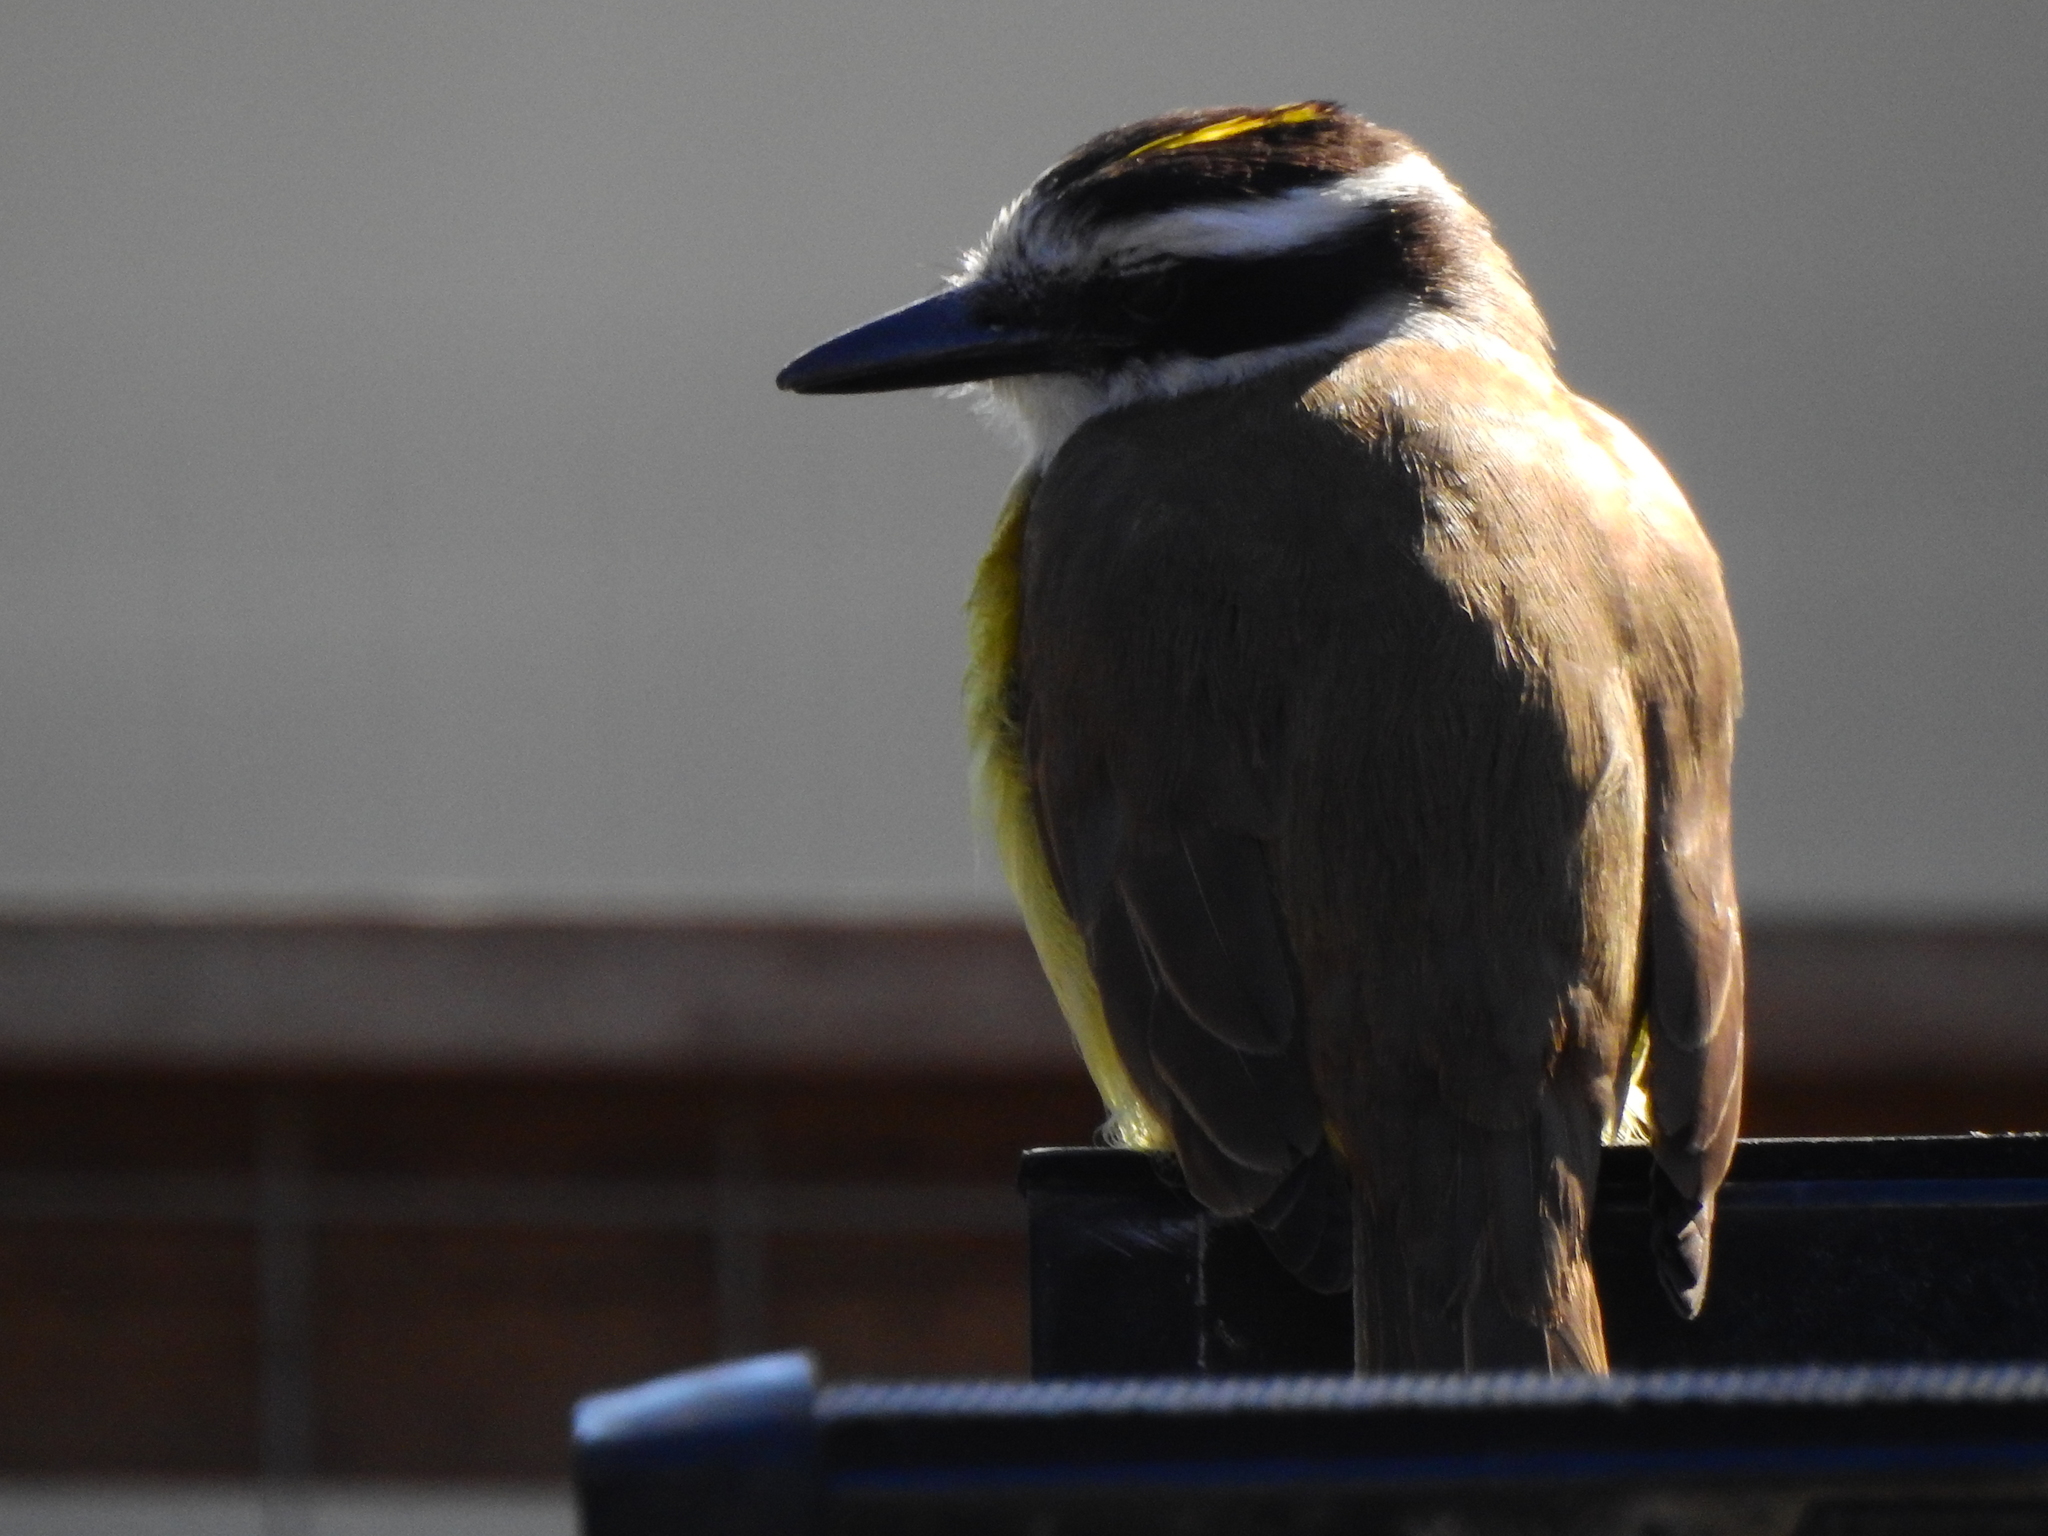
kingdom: Animalia
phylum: Chordata
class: Aves
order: Passeriformes
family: Tyrannidae
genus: Pitangus
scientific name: Pitangus sulphuratus
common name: Great kiskadee
